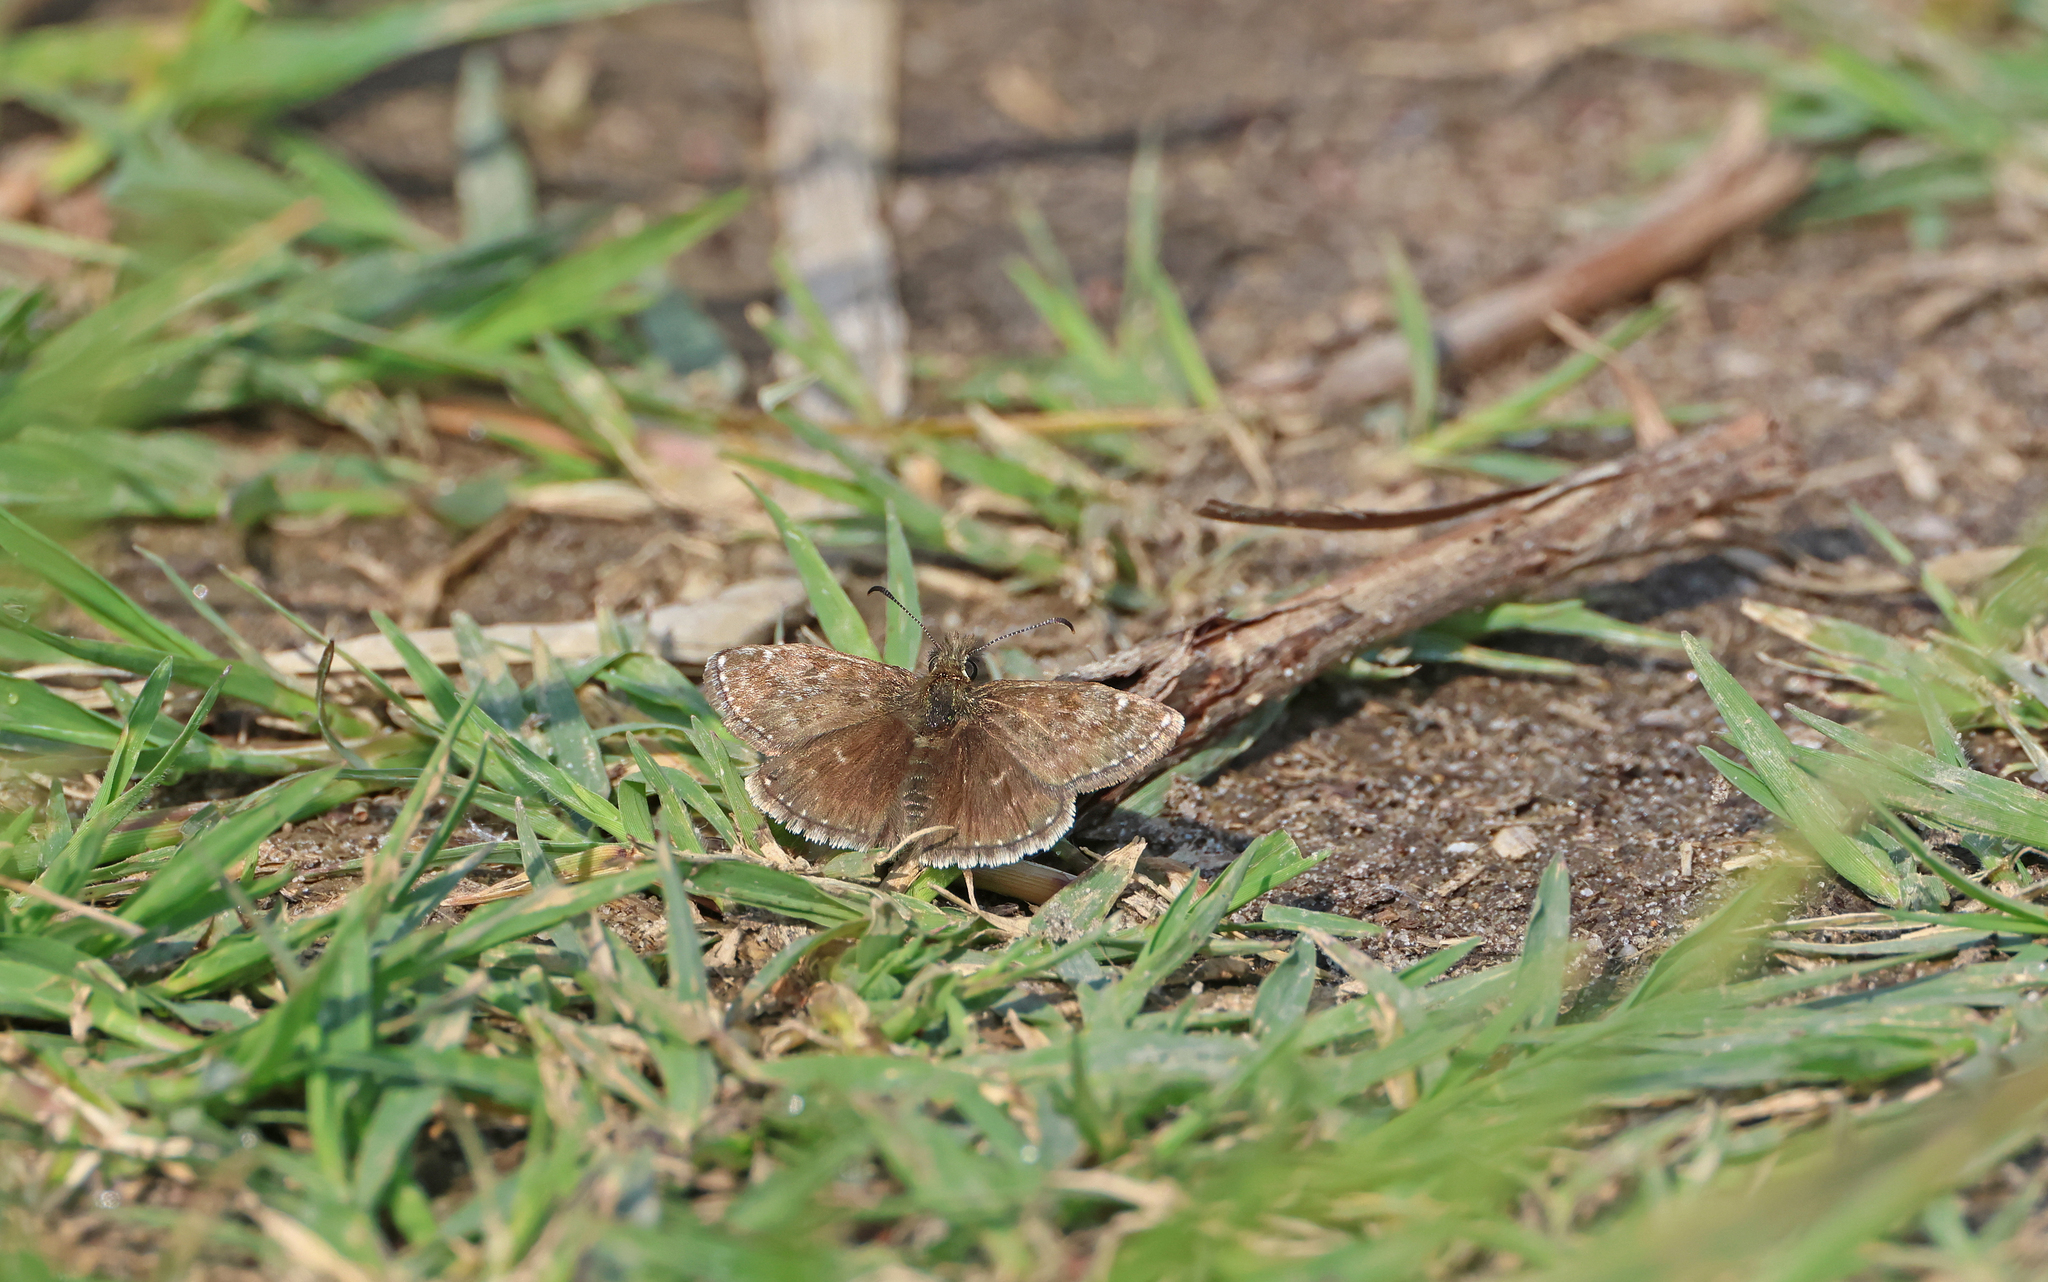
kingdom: Animalia
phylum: Arthropoda
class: Insecta
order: Lepidoptera
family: Hesperiidae
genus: Erynnis
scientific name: Erynnis tages
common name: Dingy skipper
